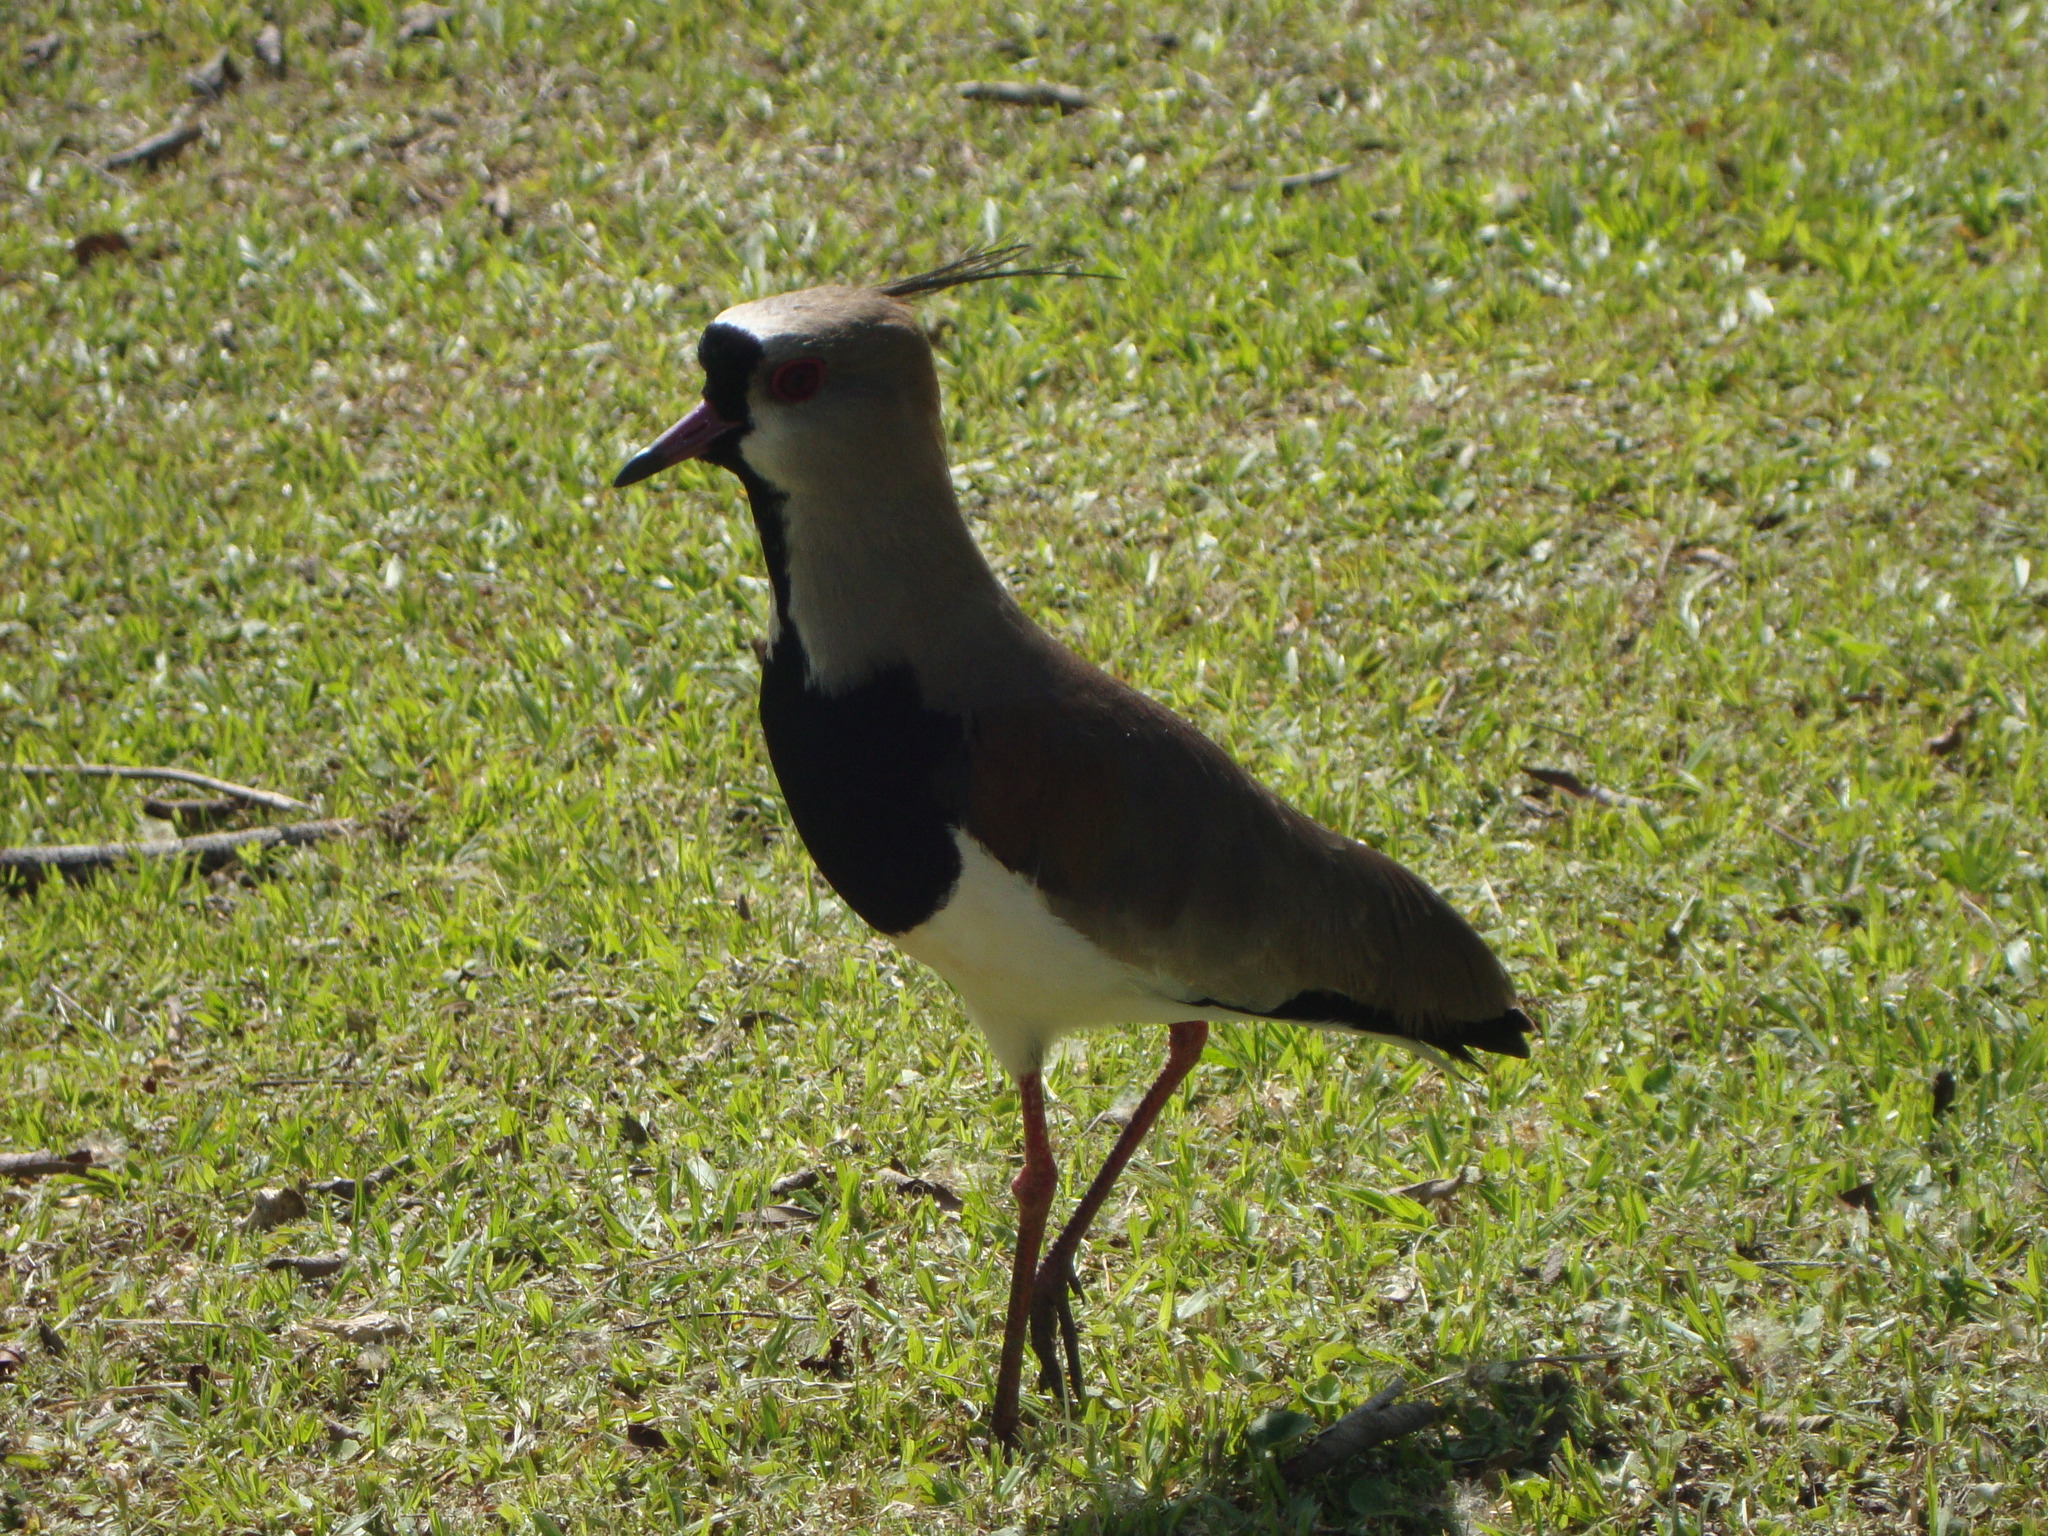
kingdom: Animalia
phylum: Chordata
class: Aves
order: Charadriiformes
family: Charadriidae
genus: Vanellus
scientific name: Vanellus chilensis
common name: Southern lapwing
